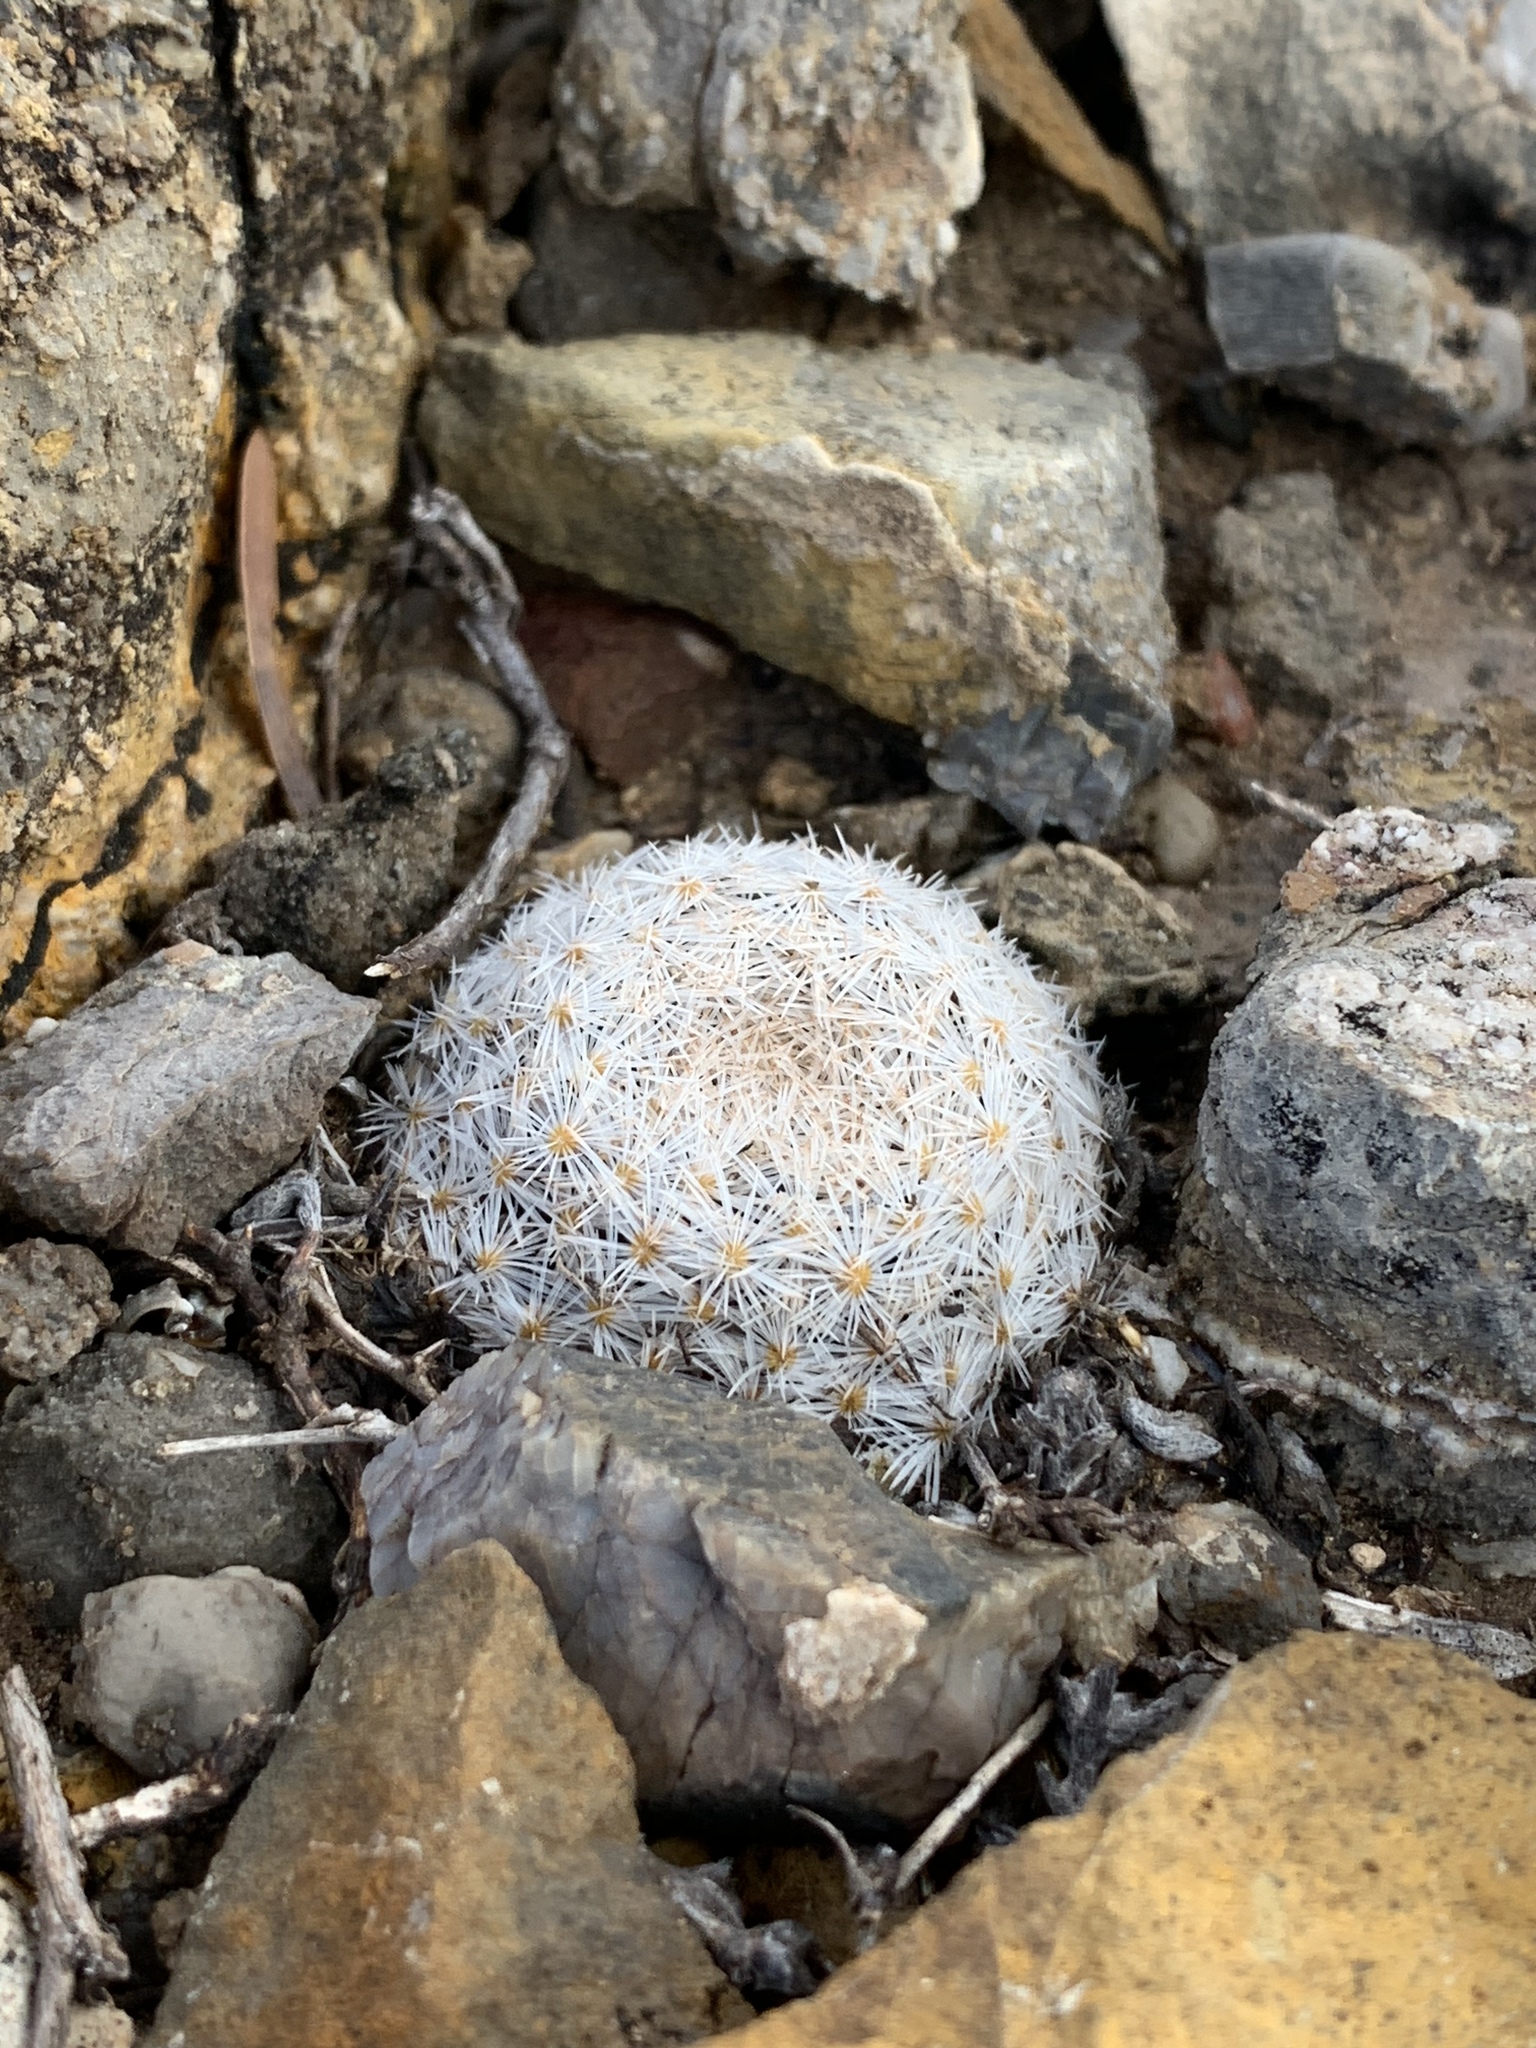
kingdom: Plantae
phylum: Tracheophyta
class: Magnoliopsida
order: Caryophyllales
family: Cactaceae
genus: Mammillaria
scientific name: Mammillaria lasiacantha
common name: Lace-spine nipple cactus
